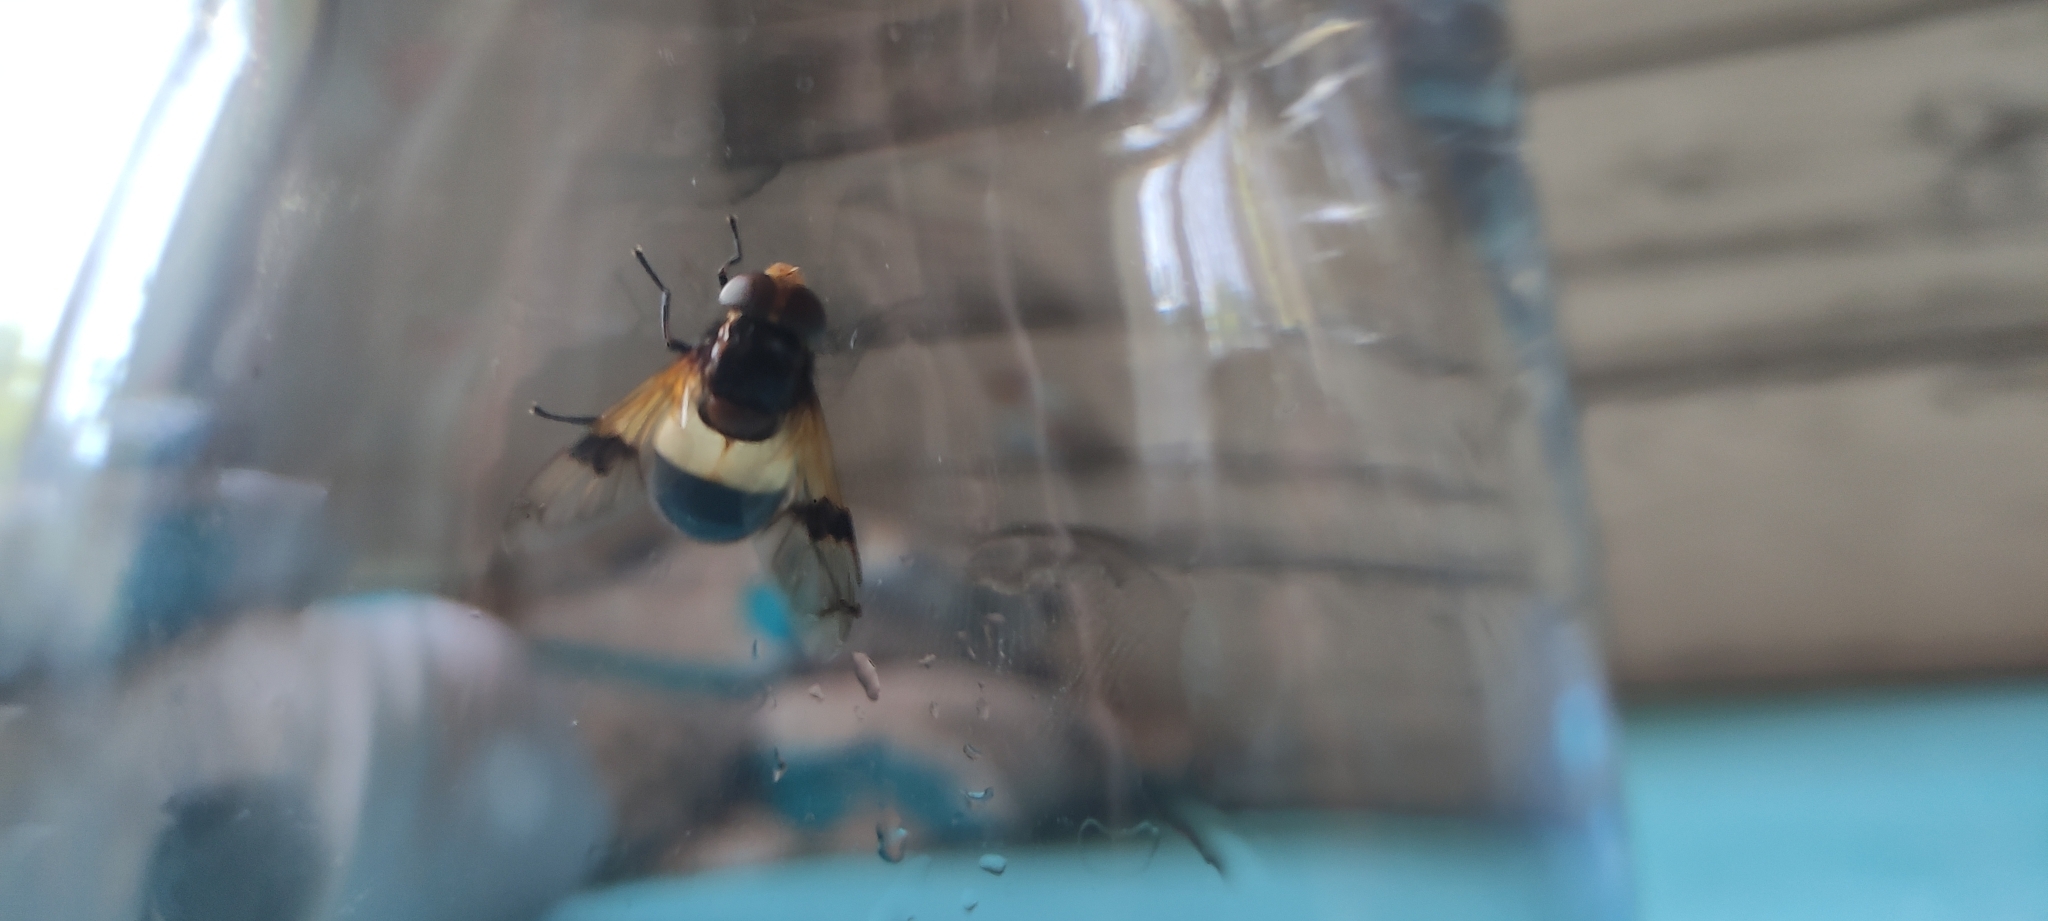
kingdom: Animalia
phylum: Arthropoda
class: Insecta
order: Diptera
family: Syrphidae
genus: Volucella
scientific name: Volucella pellucens
